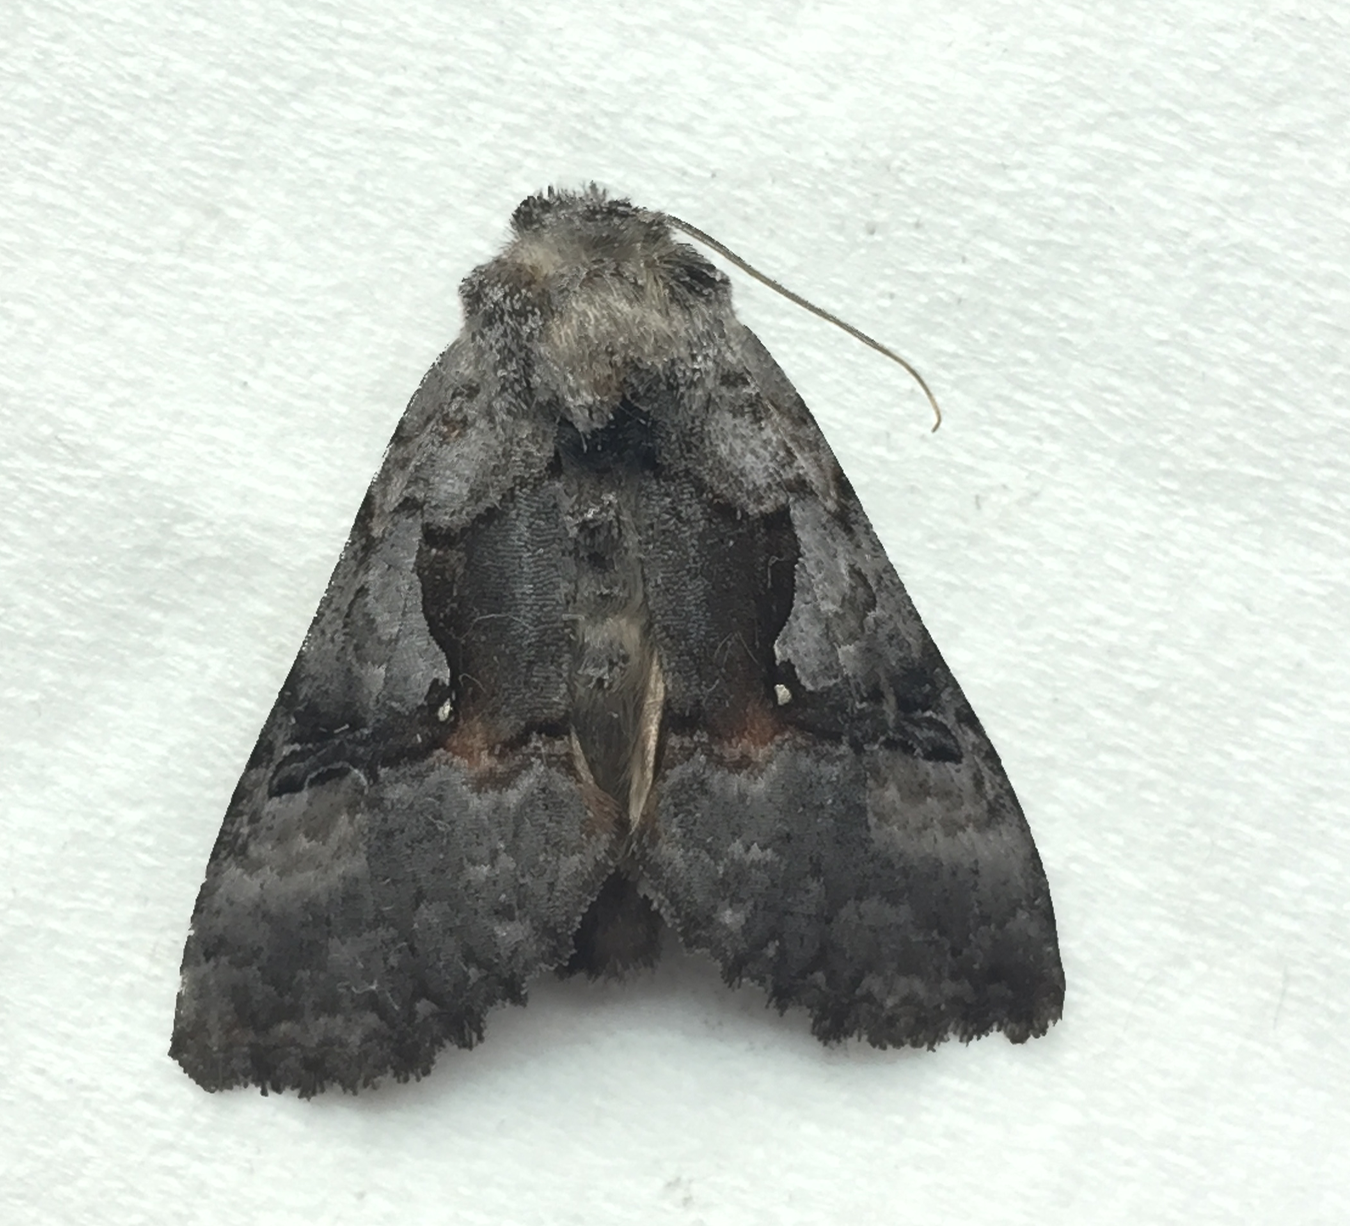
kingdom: Animalia
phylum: Arthropoda
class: Insecta
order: Lepidoptera
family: Noctuidae
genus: Syngrapha
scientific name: Syngrapha epigaea
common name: Epigaea looper moth
